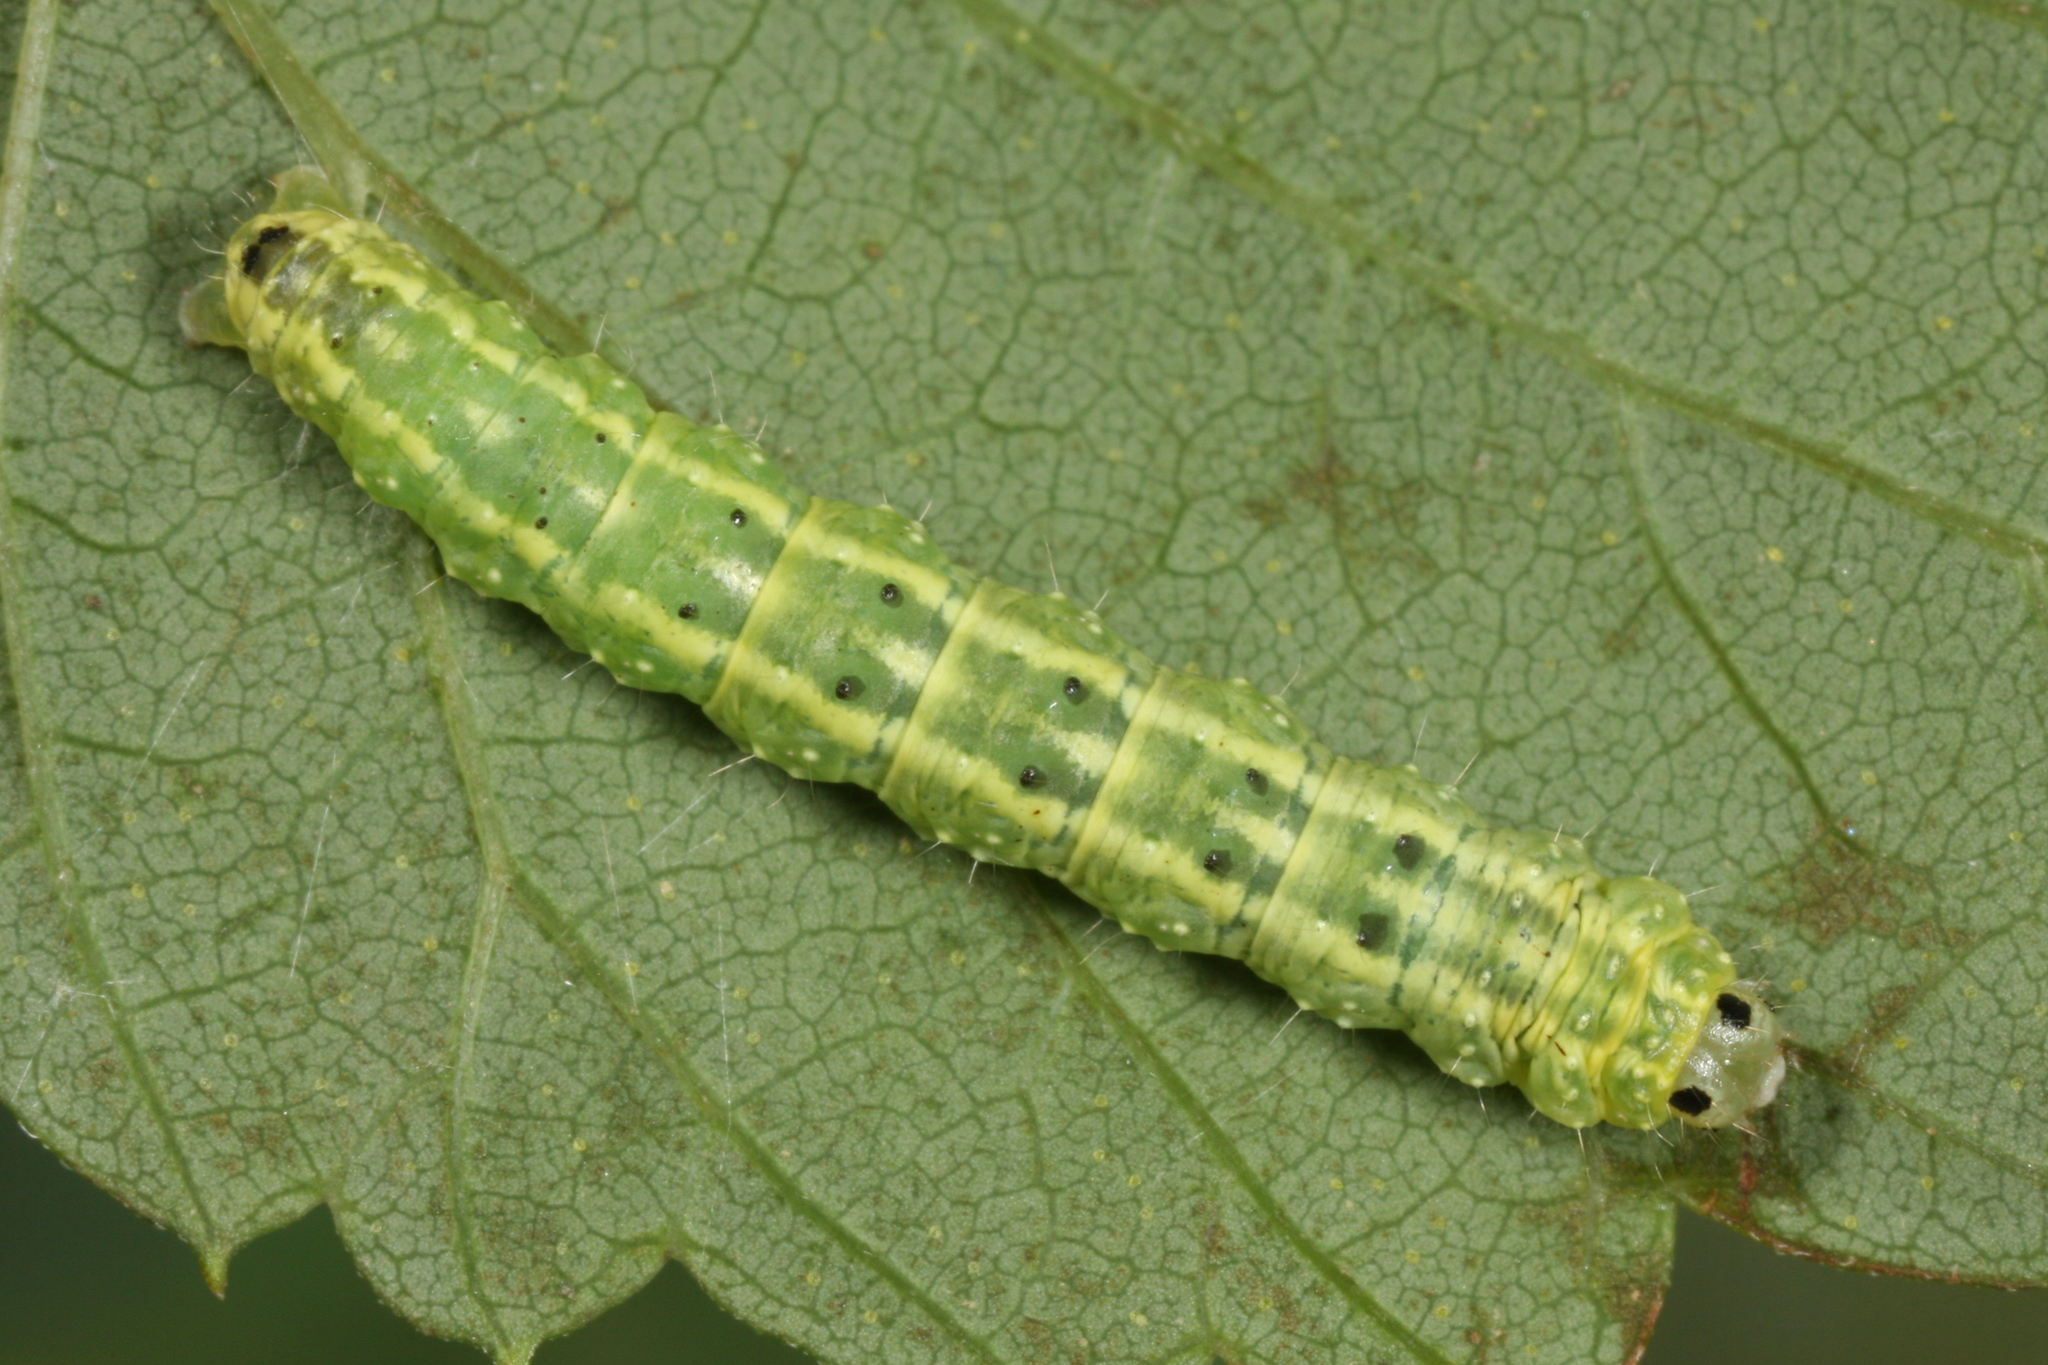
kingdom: Animalia
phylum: Arthropoda
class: Insecta
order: Lepidoptera
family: Geometridae
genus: Euchoeca
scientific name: Euchoeca nebulata
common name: Dingy shell
